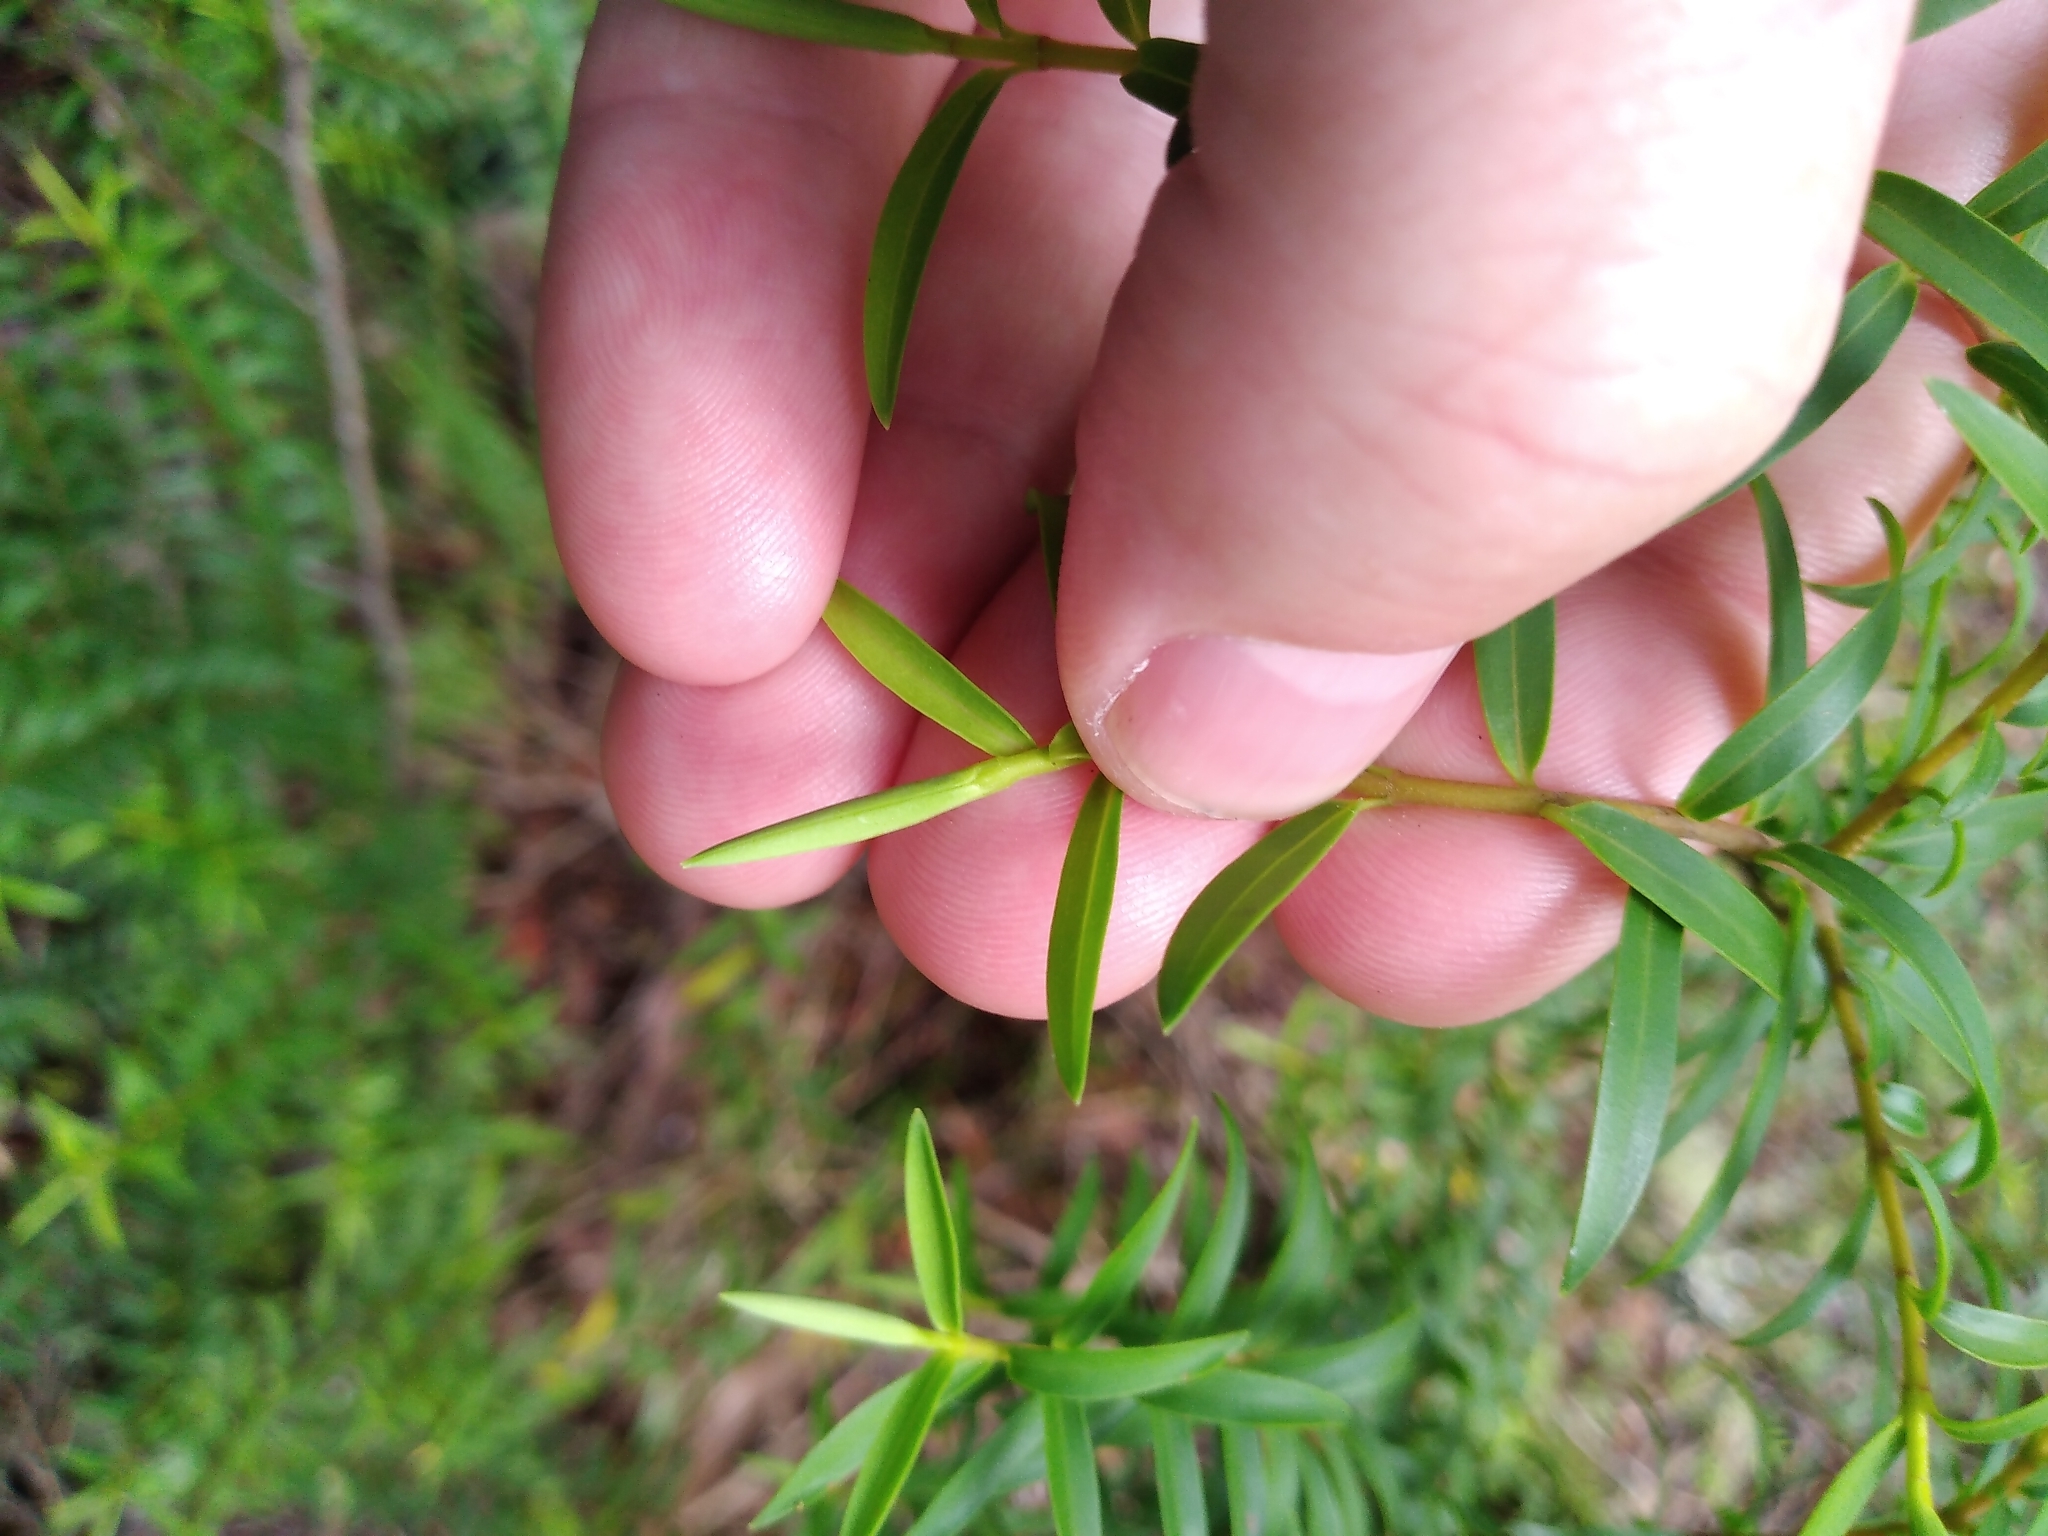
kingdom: Plantae
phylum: Tracheophyta
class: Magnoliopsida
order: Lamiales
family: Plantaginaceae
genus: Veronica
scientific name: Veronica subfulvida
